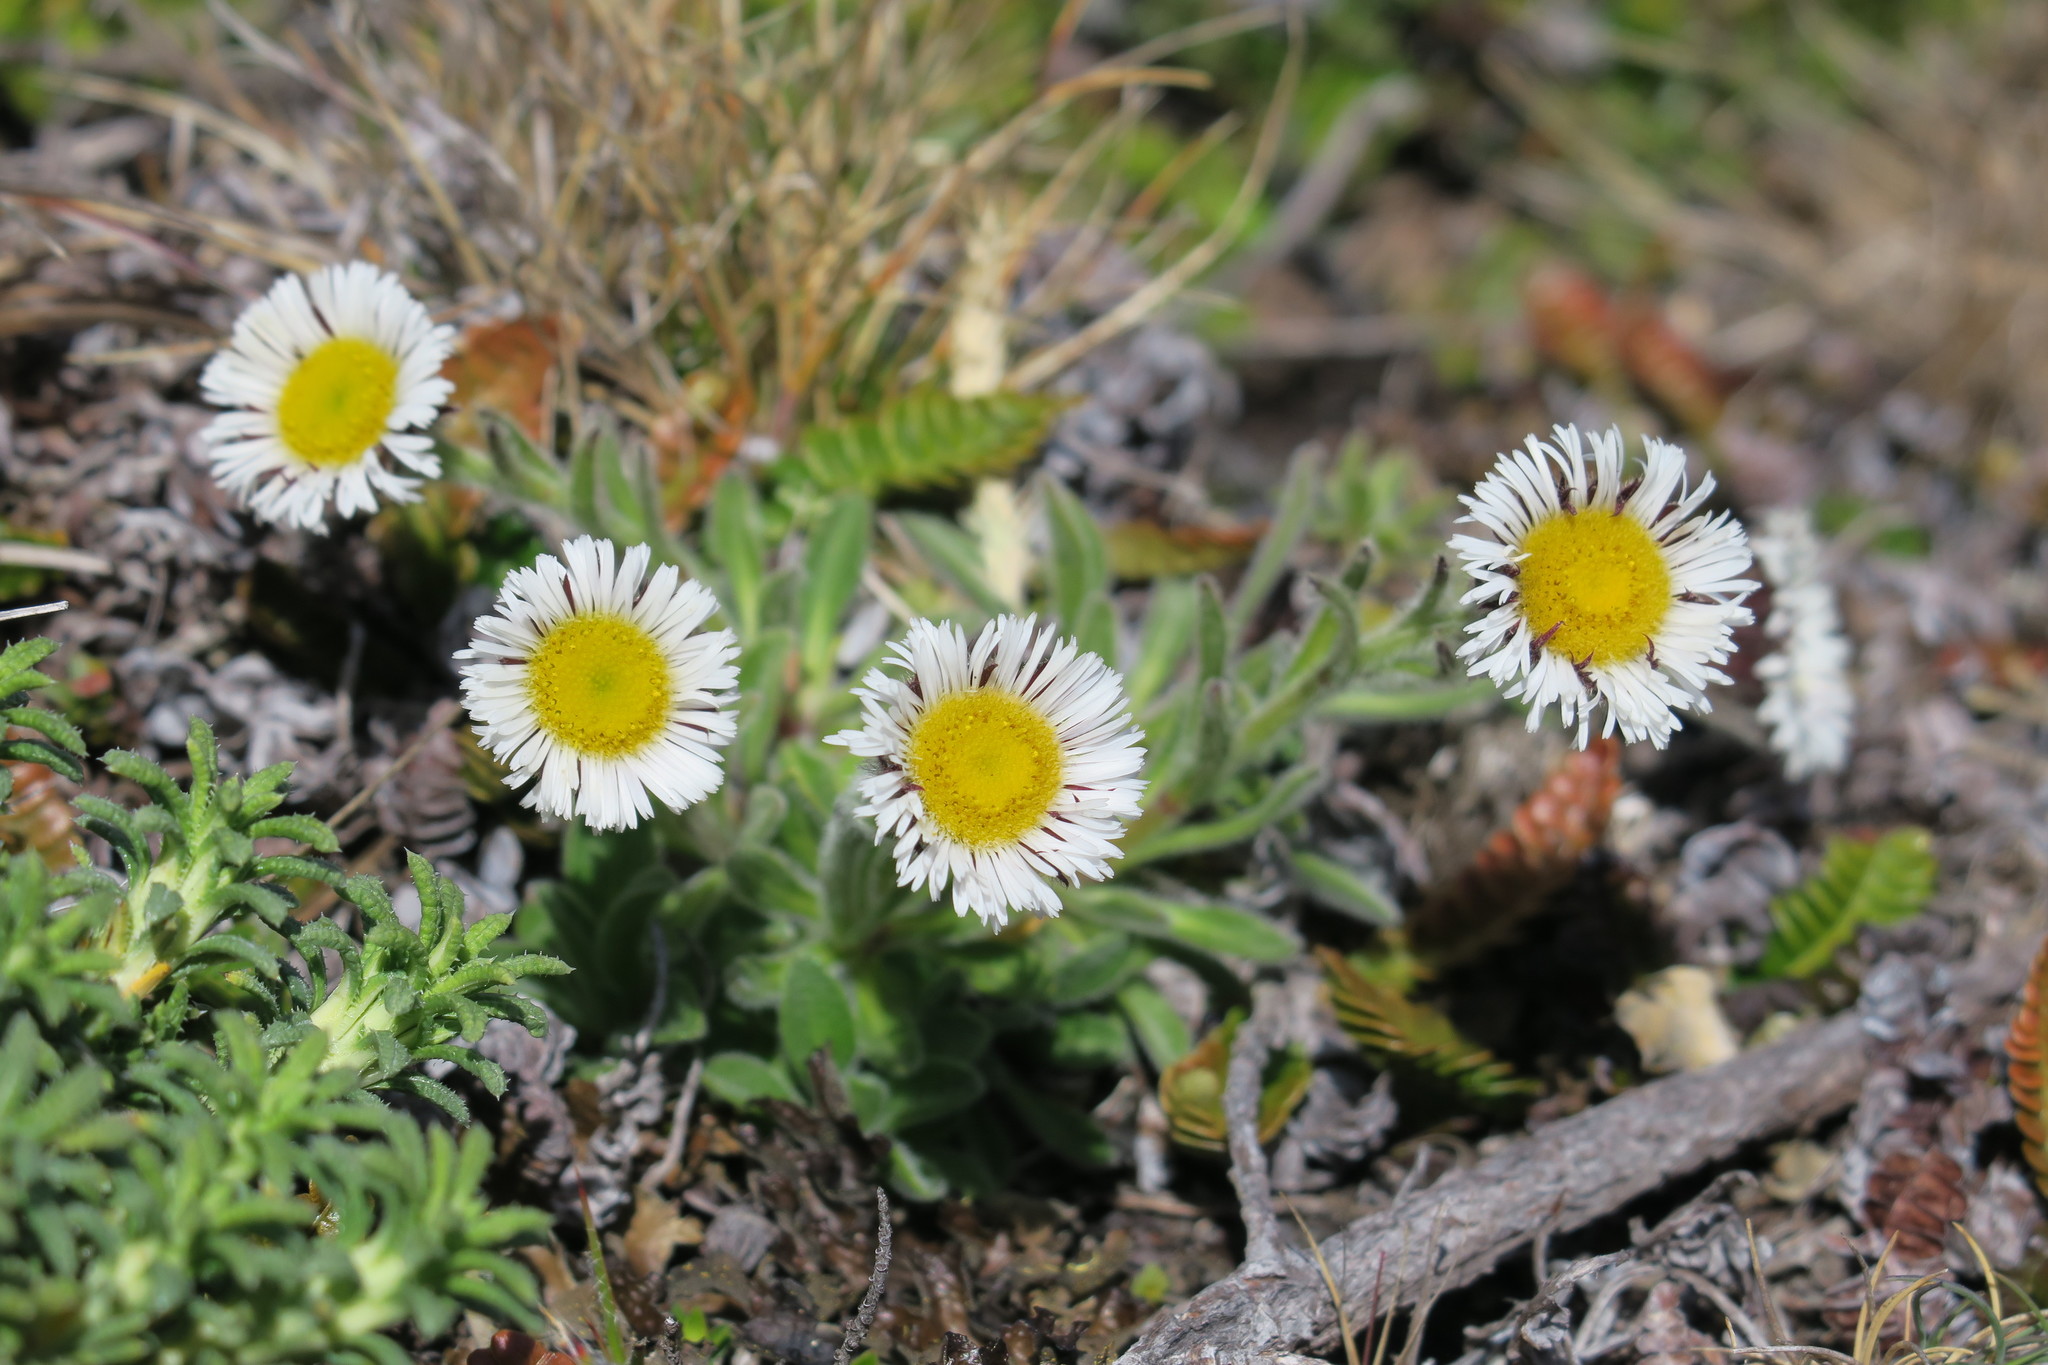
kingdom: Plantae
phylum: Tracheophyta
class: Magnoliopsida
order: Asterales
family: Asteraceae
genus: Erigeron
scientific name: Erigeron incertus
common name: Hairy daisy
